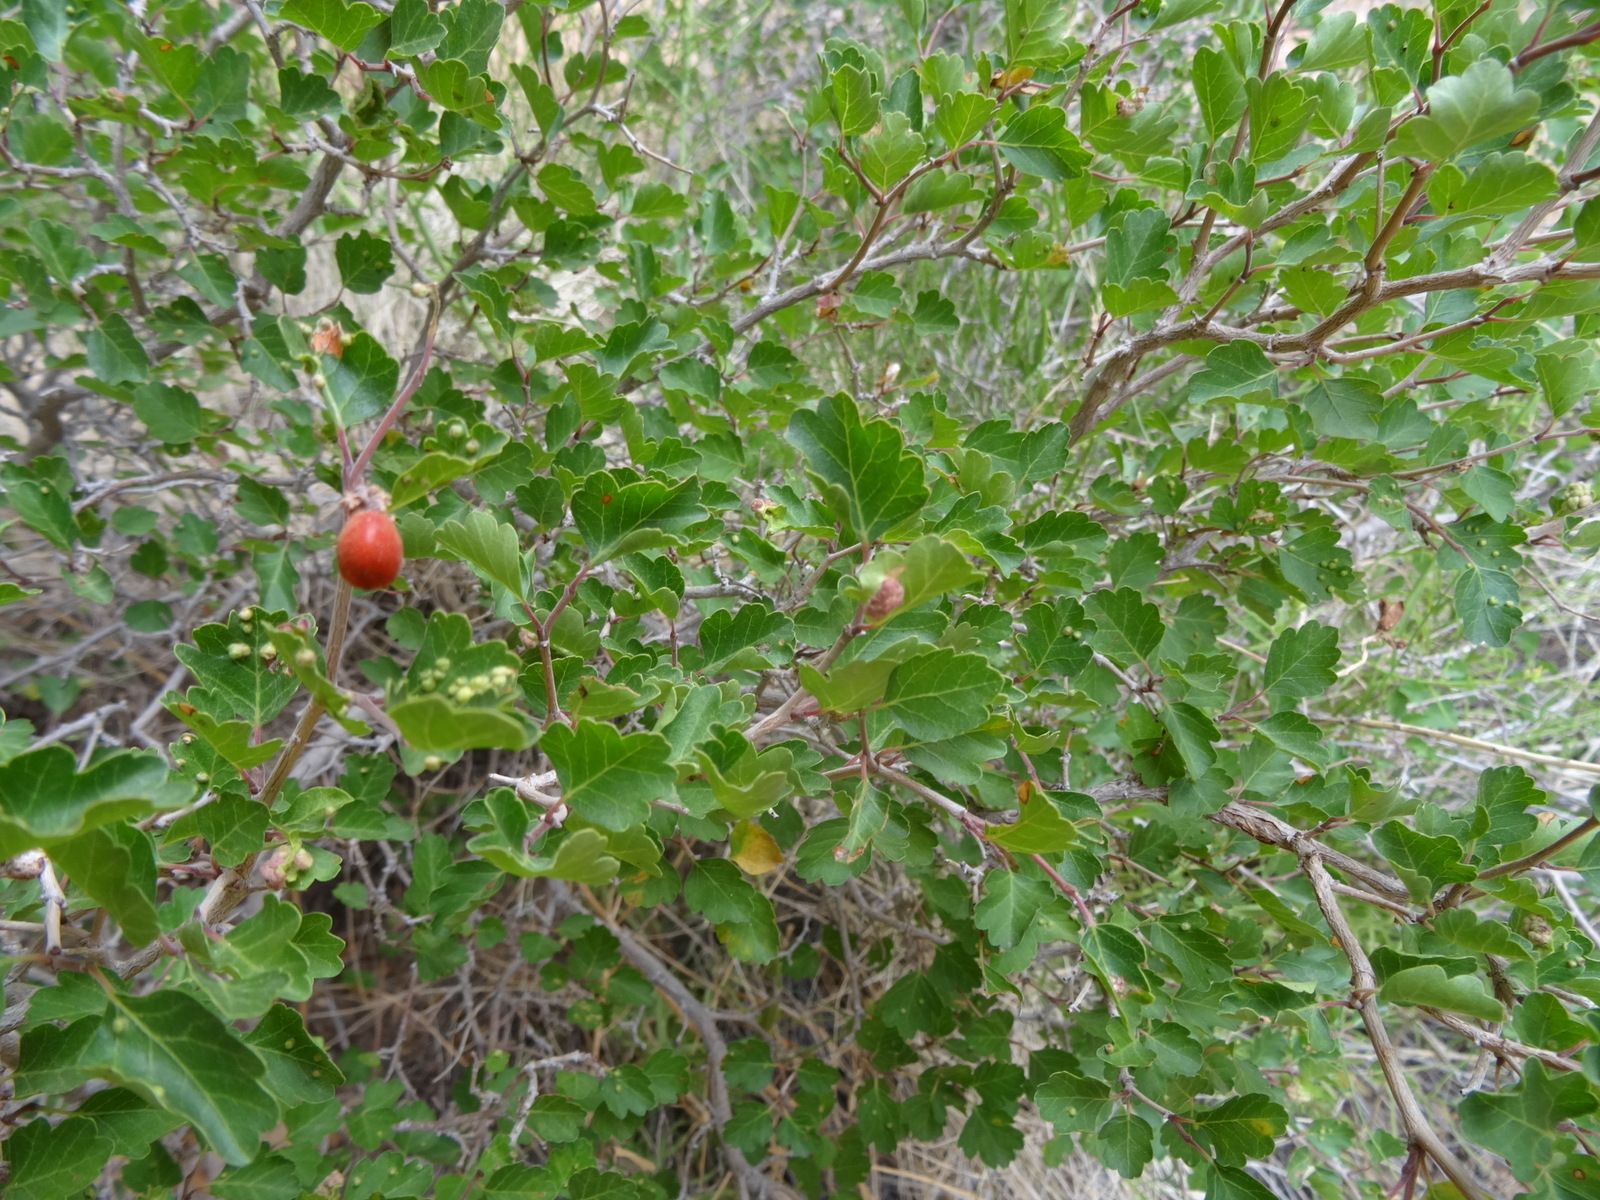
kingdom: Plantae
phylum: Tracheophyta
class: Magnoliopsida
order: Sapindales
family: Anacardiaceae
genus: Rhus
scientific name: Rhus trilobata
